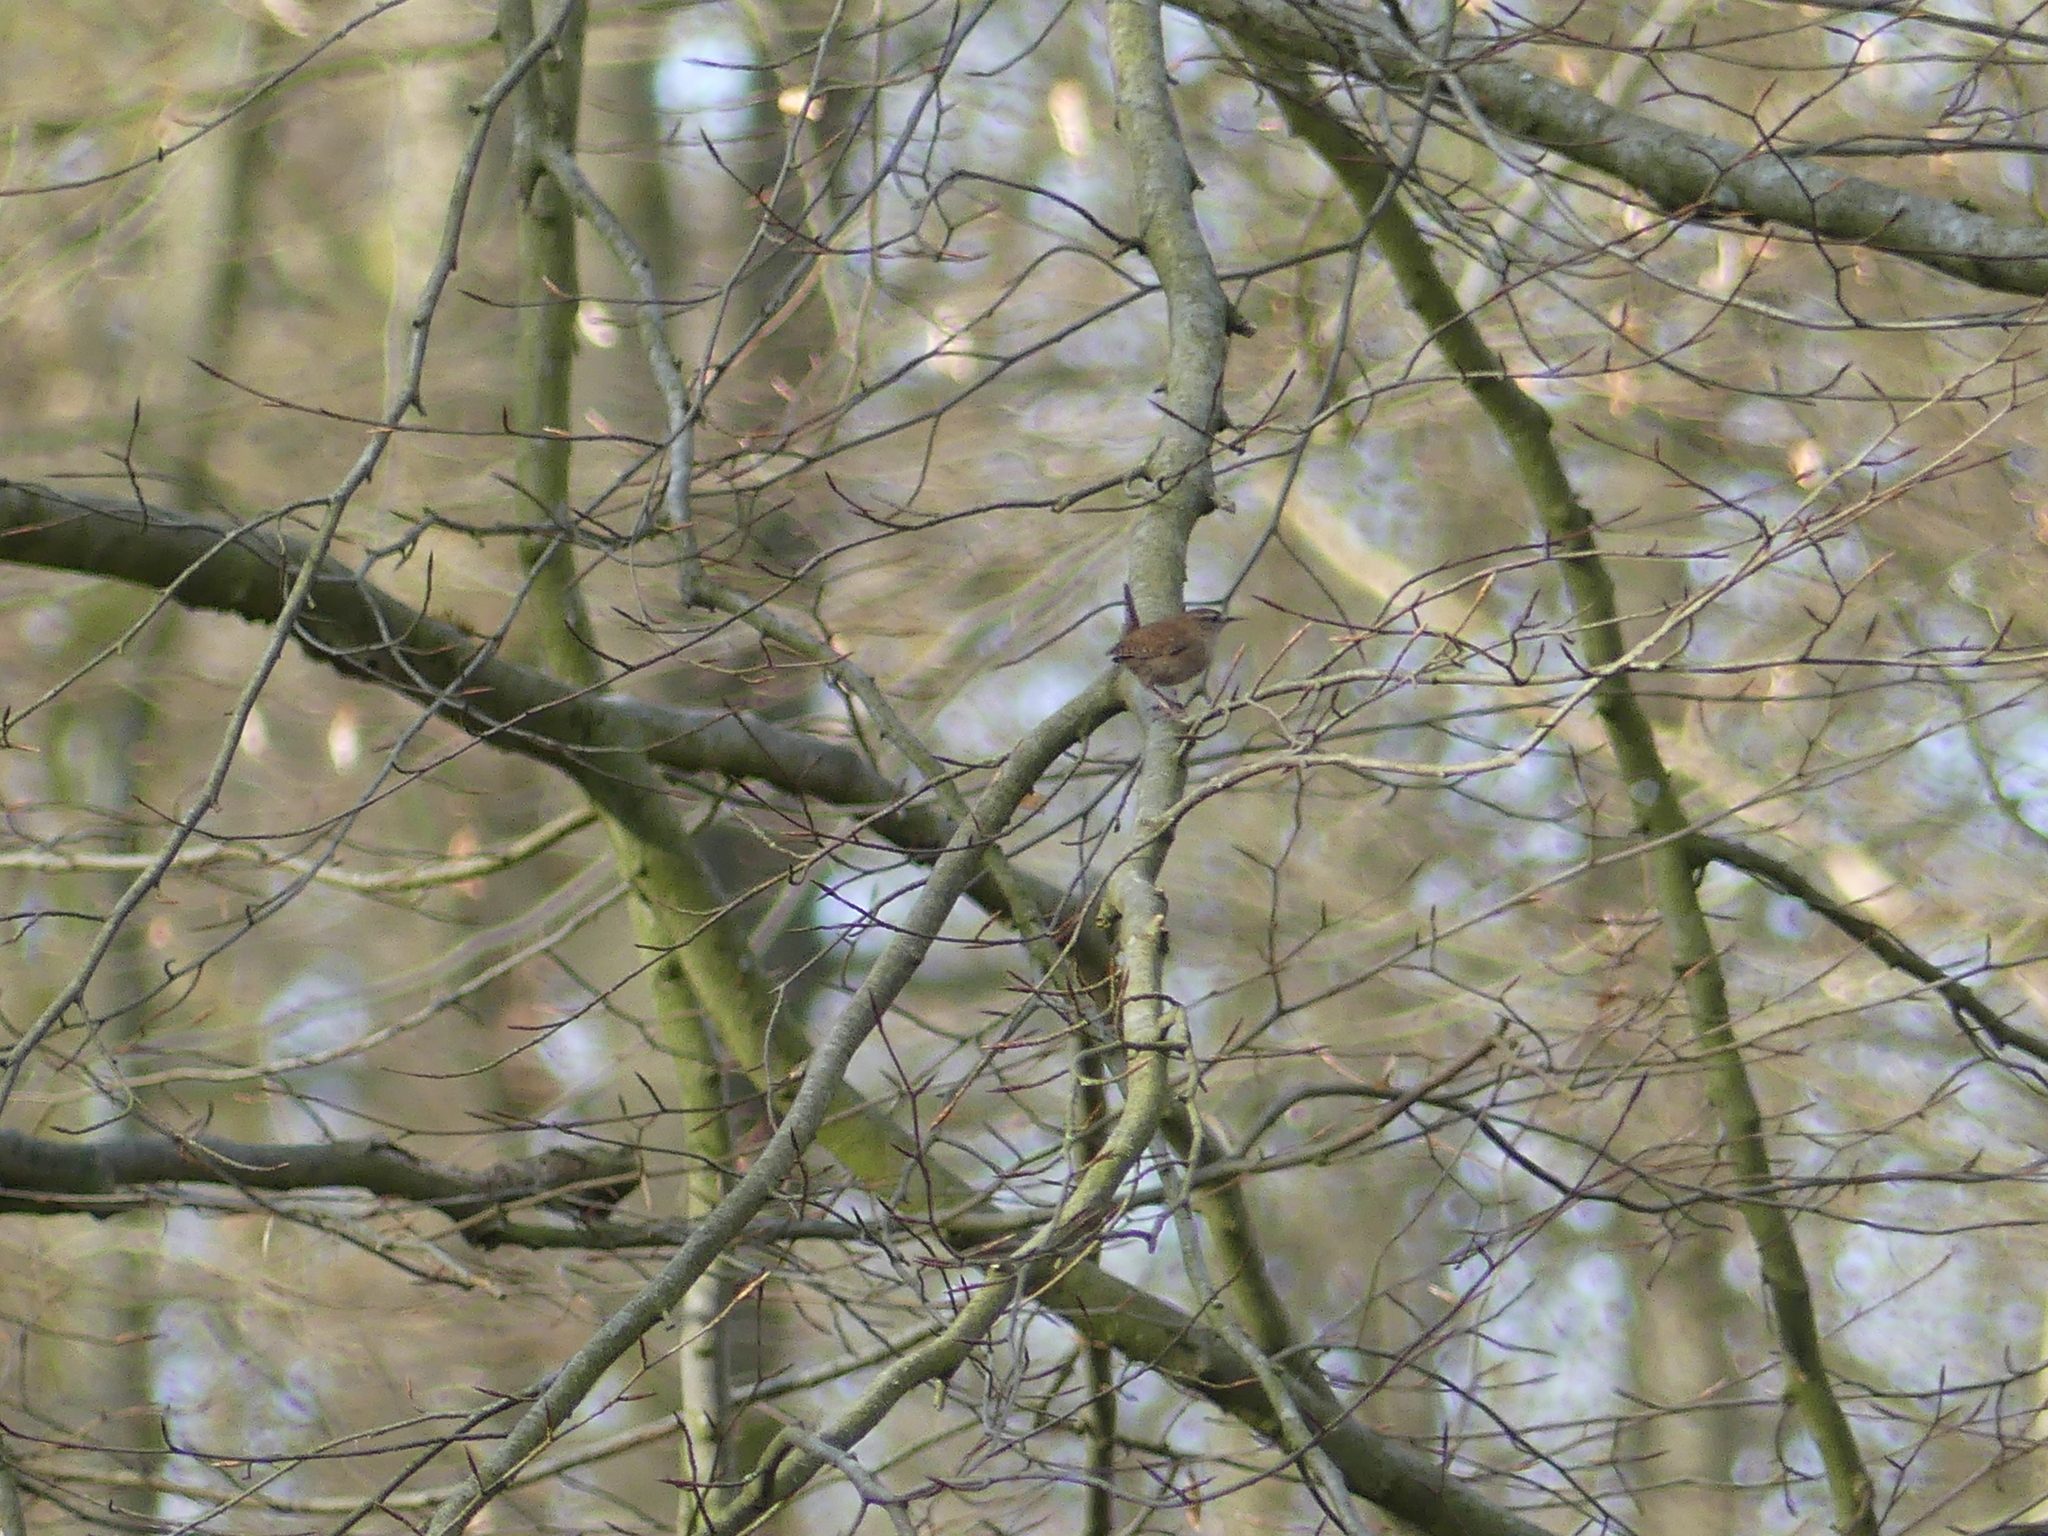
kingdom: Animalia
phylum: Chordata
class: Aves
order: Passeriformes
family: Troglodytidae
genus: Troglodytes
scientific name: Troglodytes troglodytes
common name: Eurasian wren
